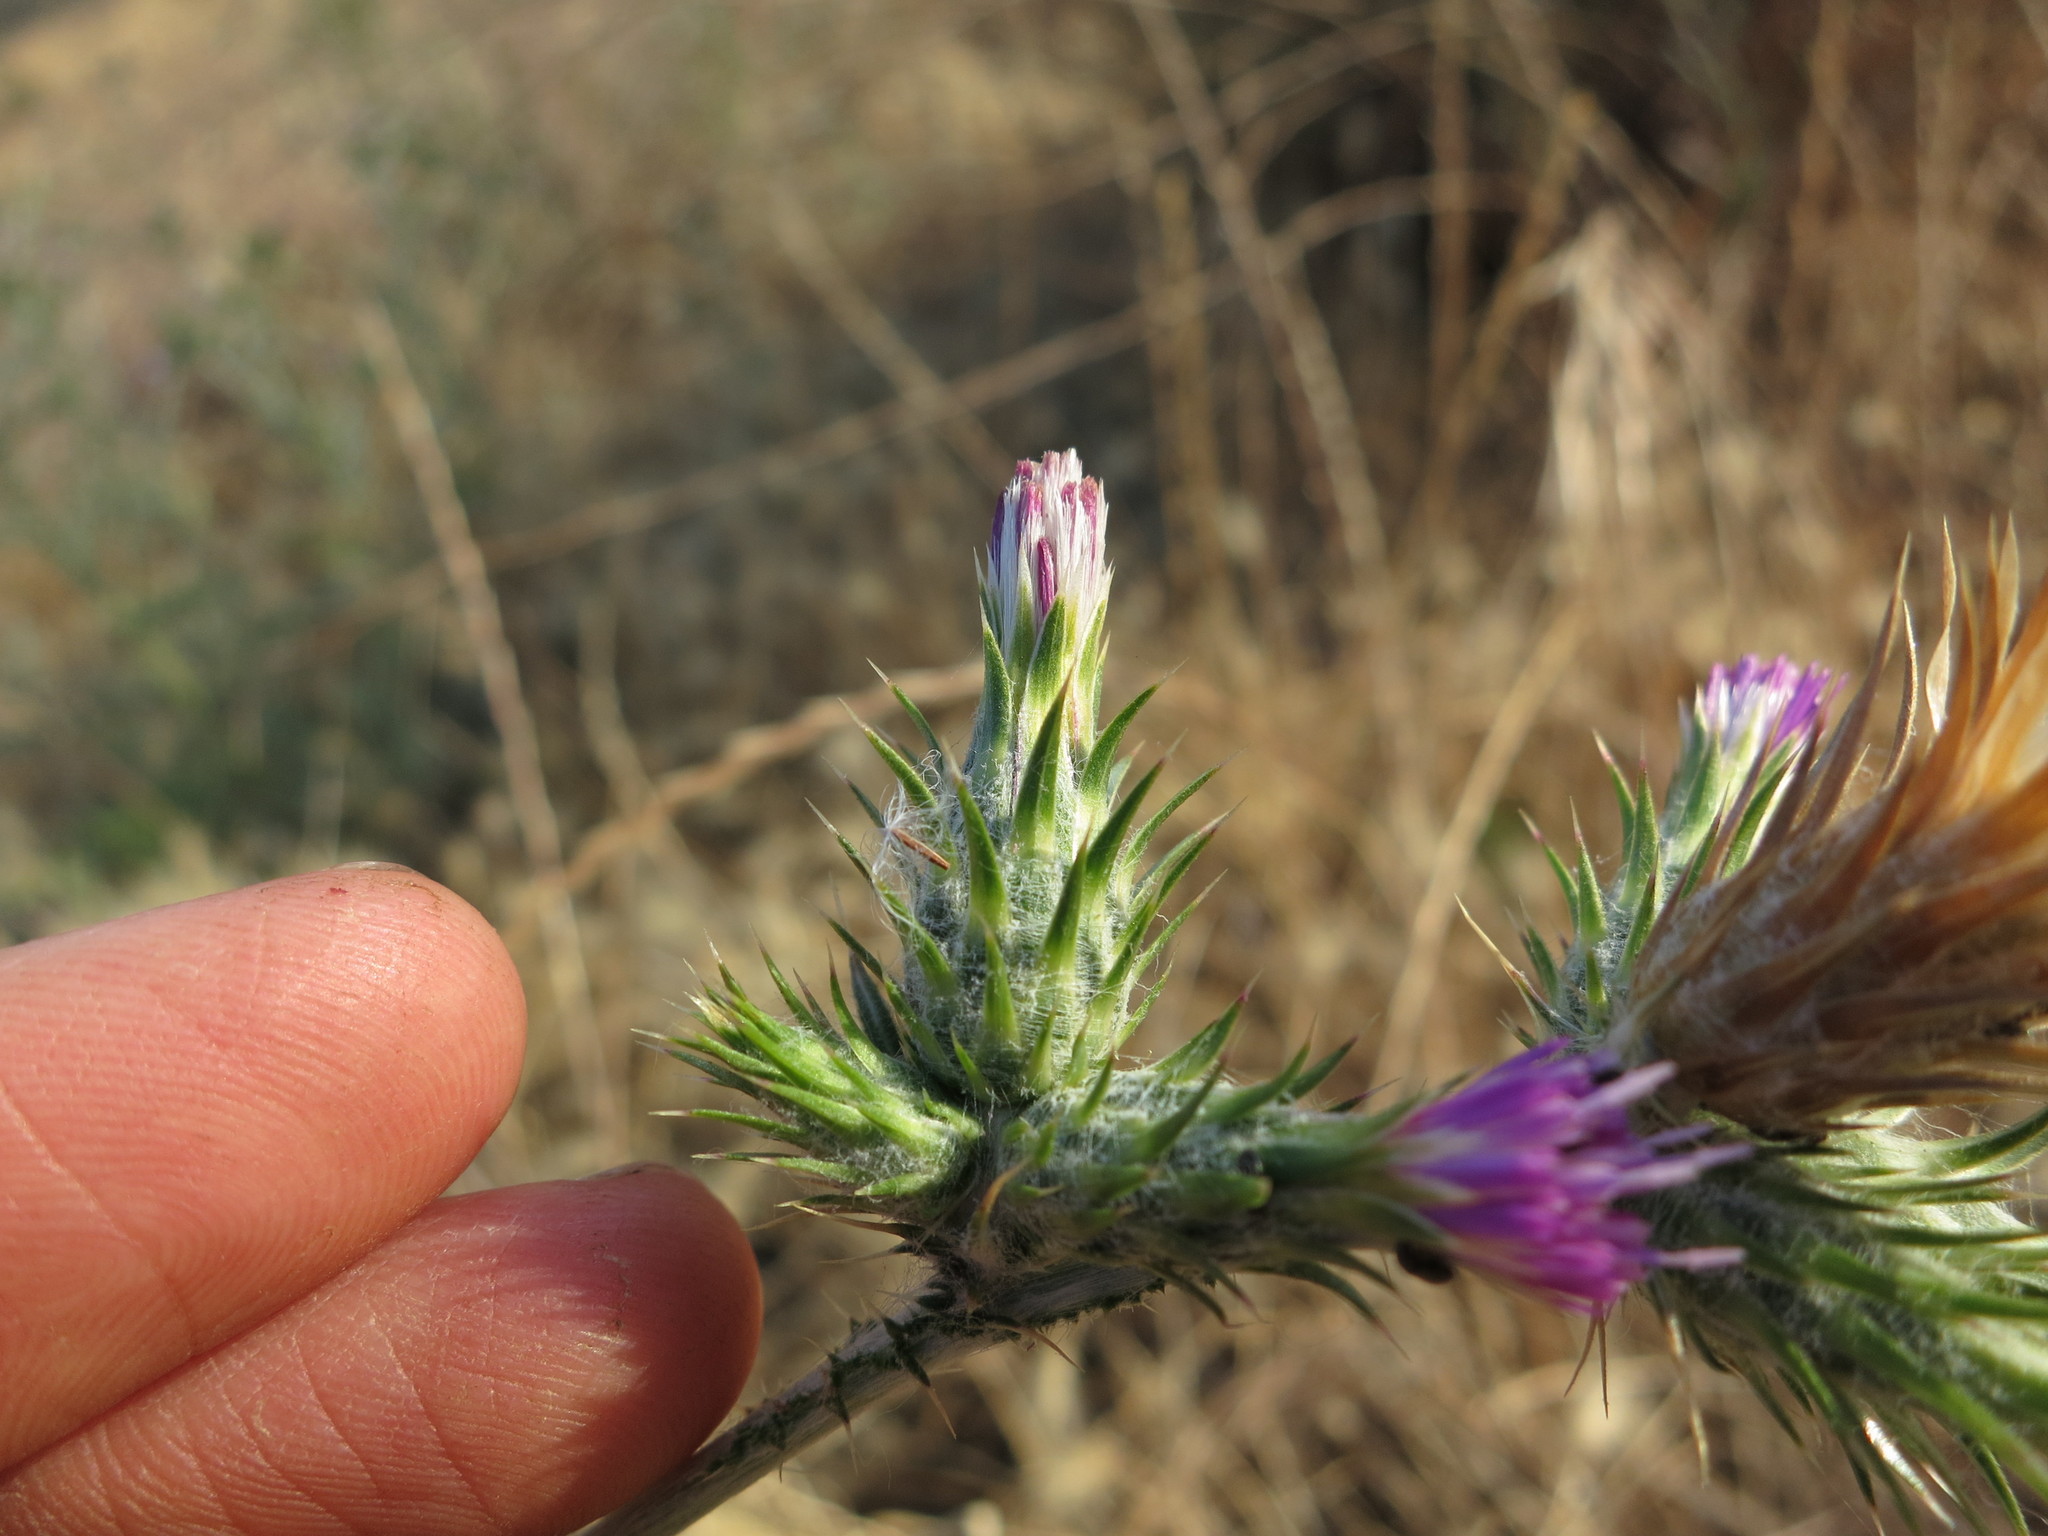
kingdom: Plantae
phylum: Tracheophyta
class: Magnoliopsida
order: Asterales
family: Asteraceae
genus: Carduus
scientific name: Carduus pycnocephalus
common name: Plymouth thistle
